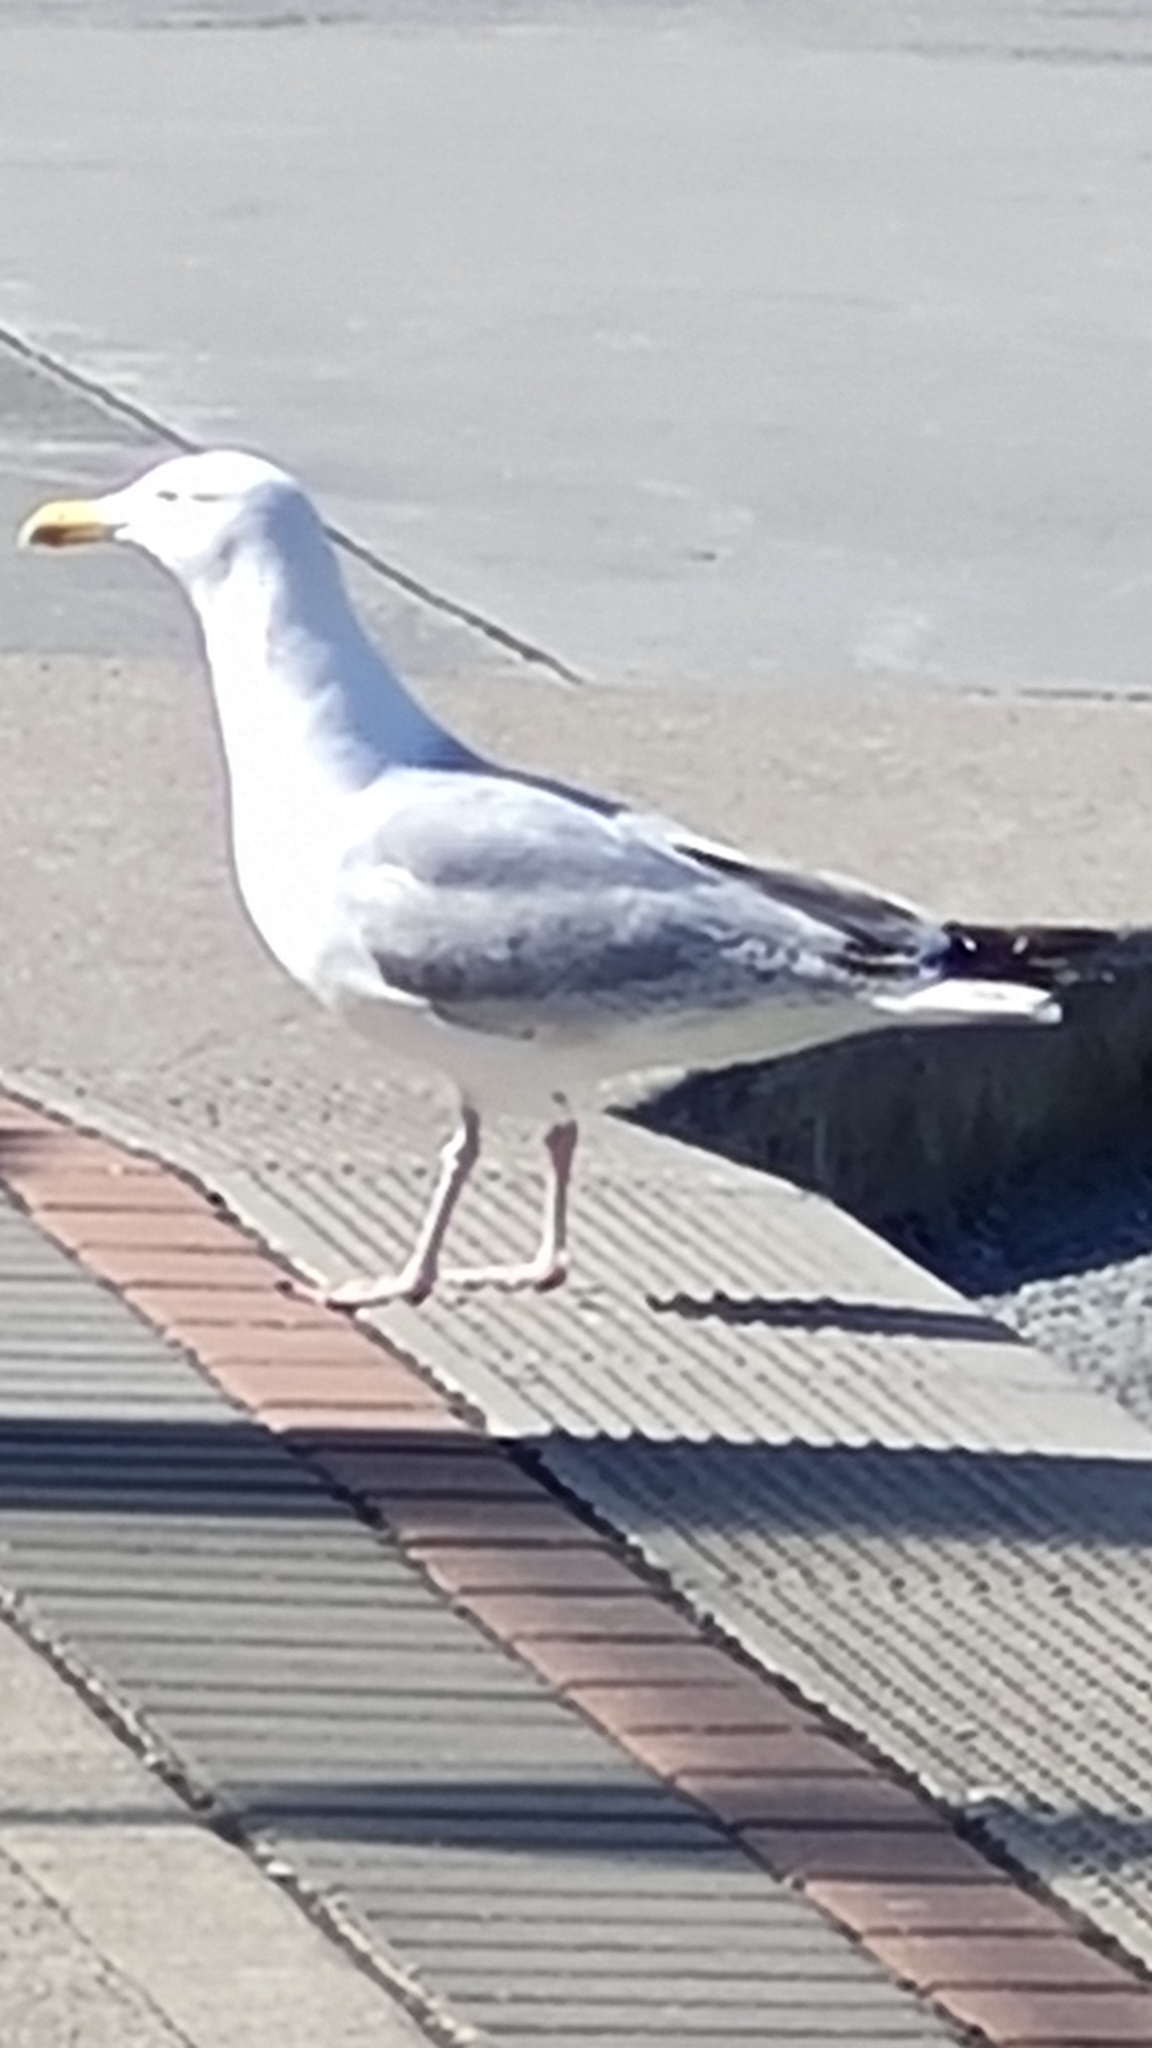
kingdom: Animalia
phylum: Chordata
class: Aves
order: Charadriiformes
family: Laridae
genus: Larus
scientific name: Larus argentatus
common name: Herring gull
